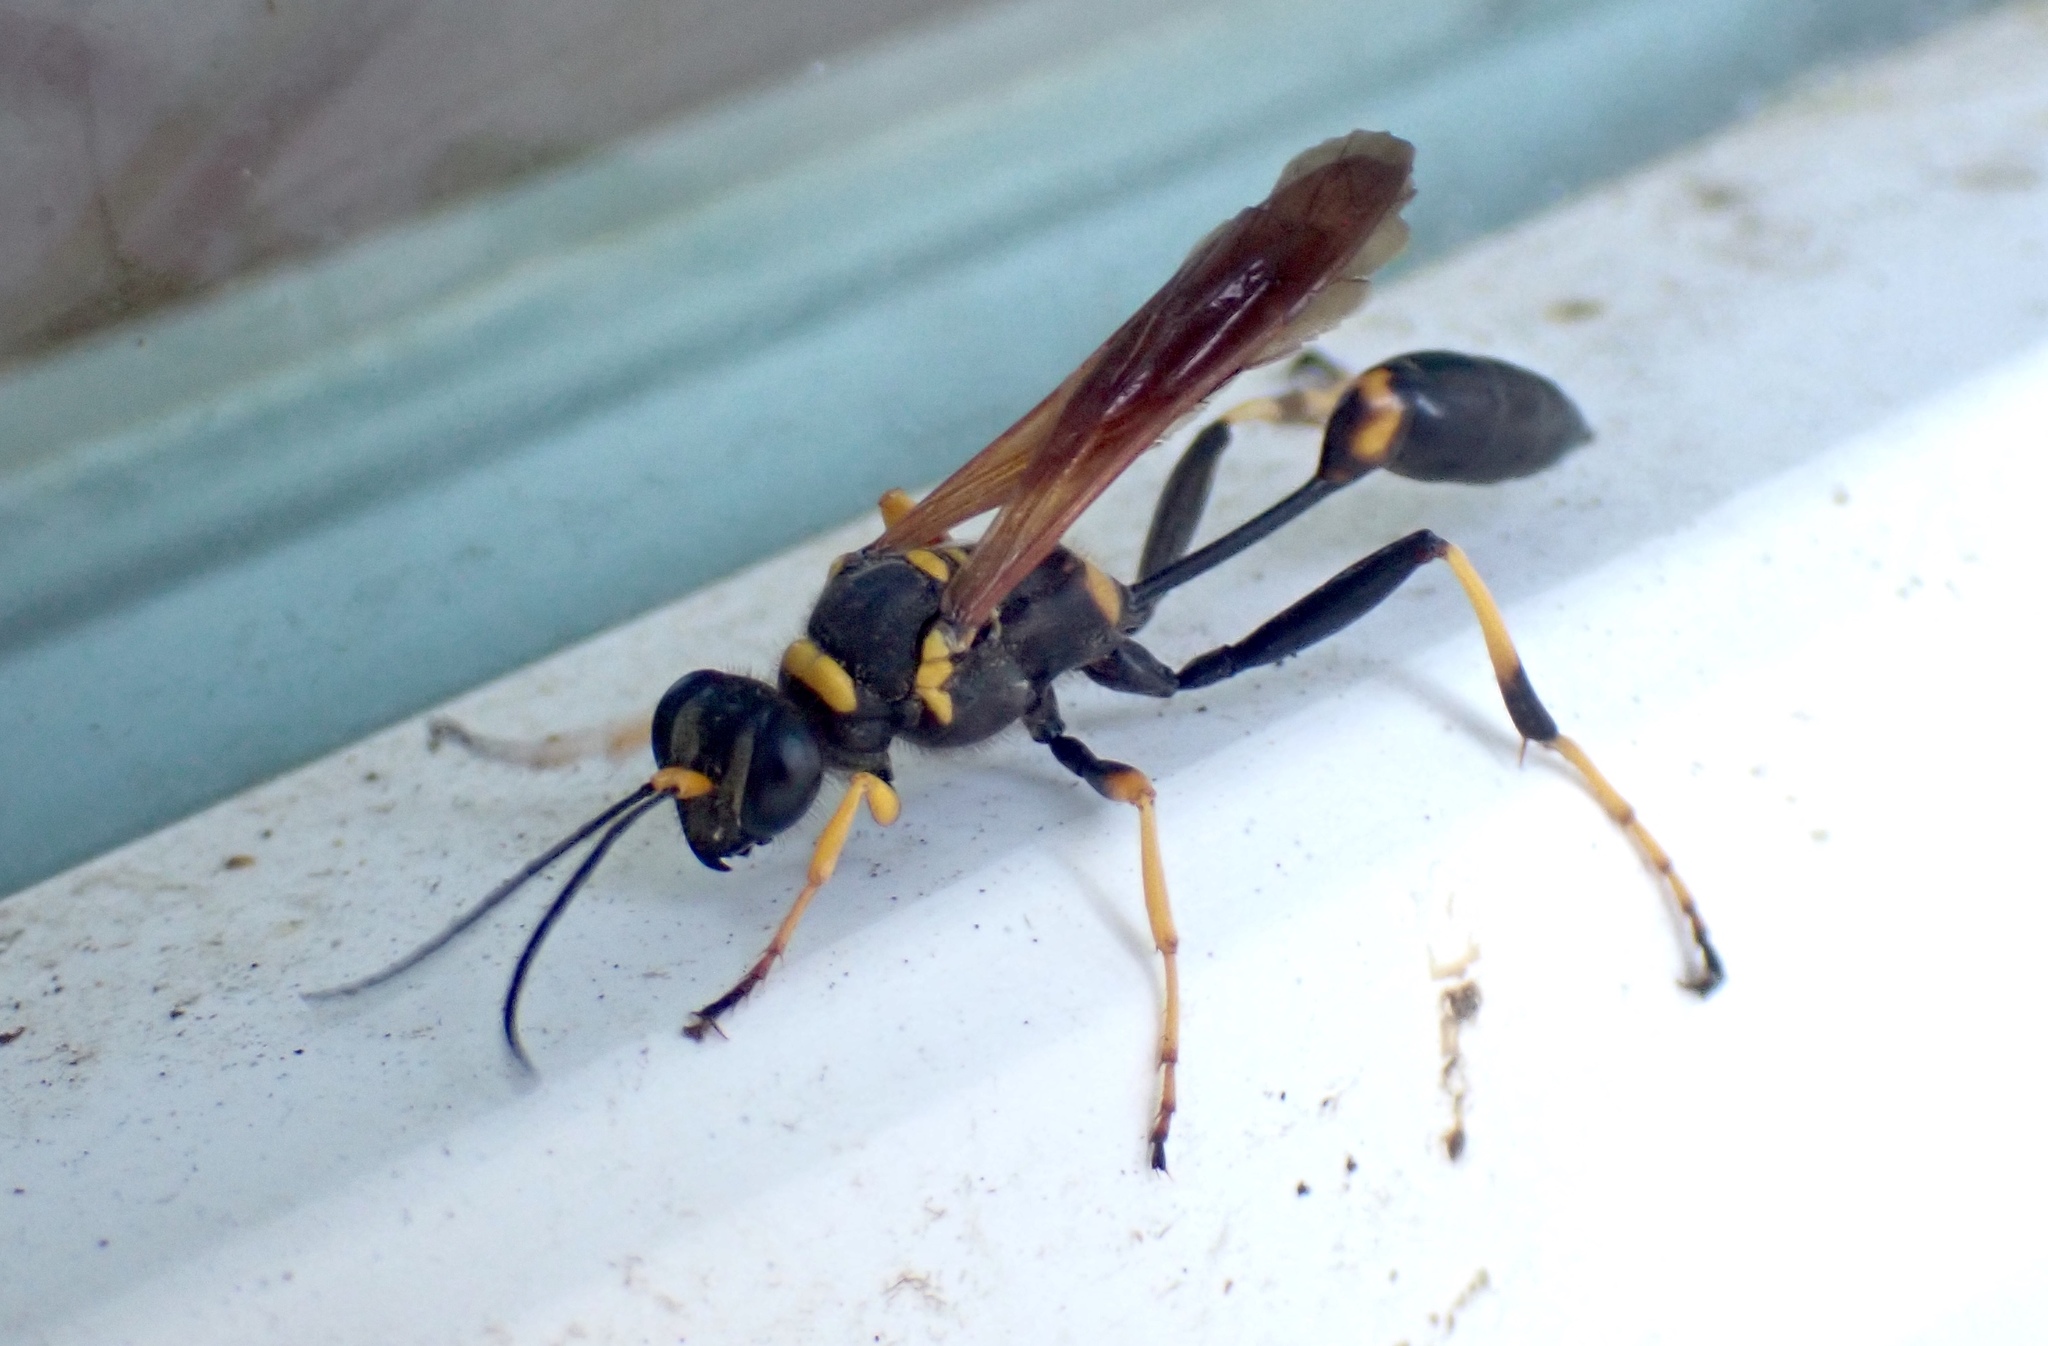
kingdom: Animalia
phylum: Arthropoda
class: Insecta
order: Hymenoptera
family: Sphecidae
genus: Sceliphron
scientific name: Sceliphron caementarium
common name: Mud dauber
